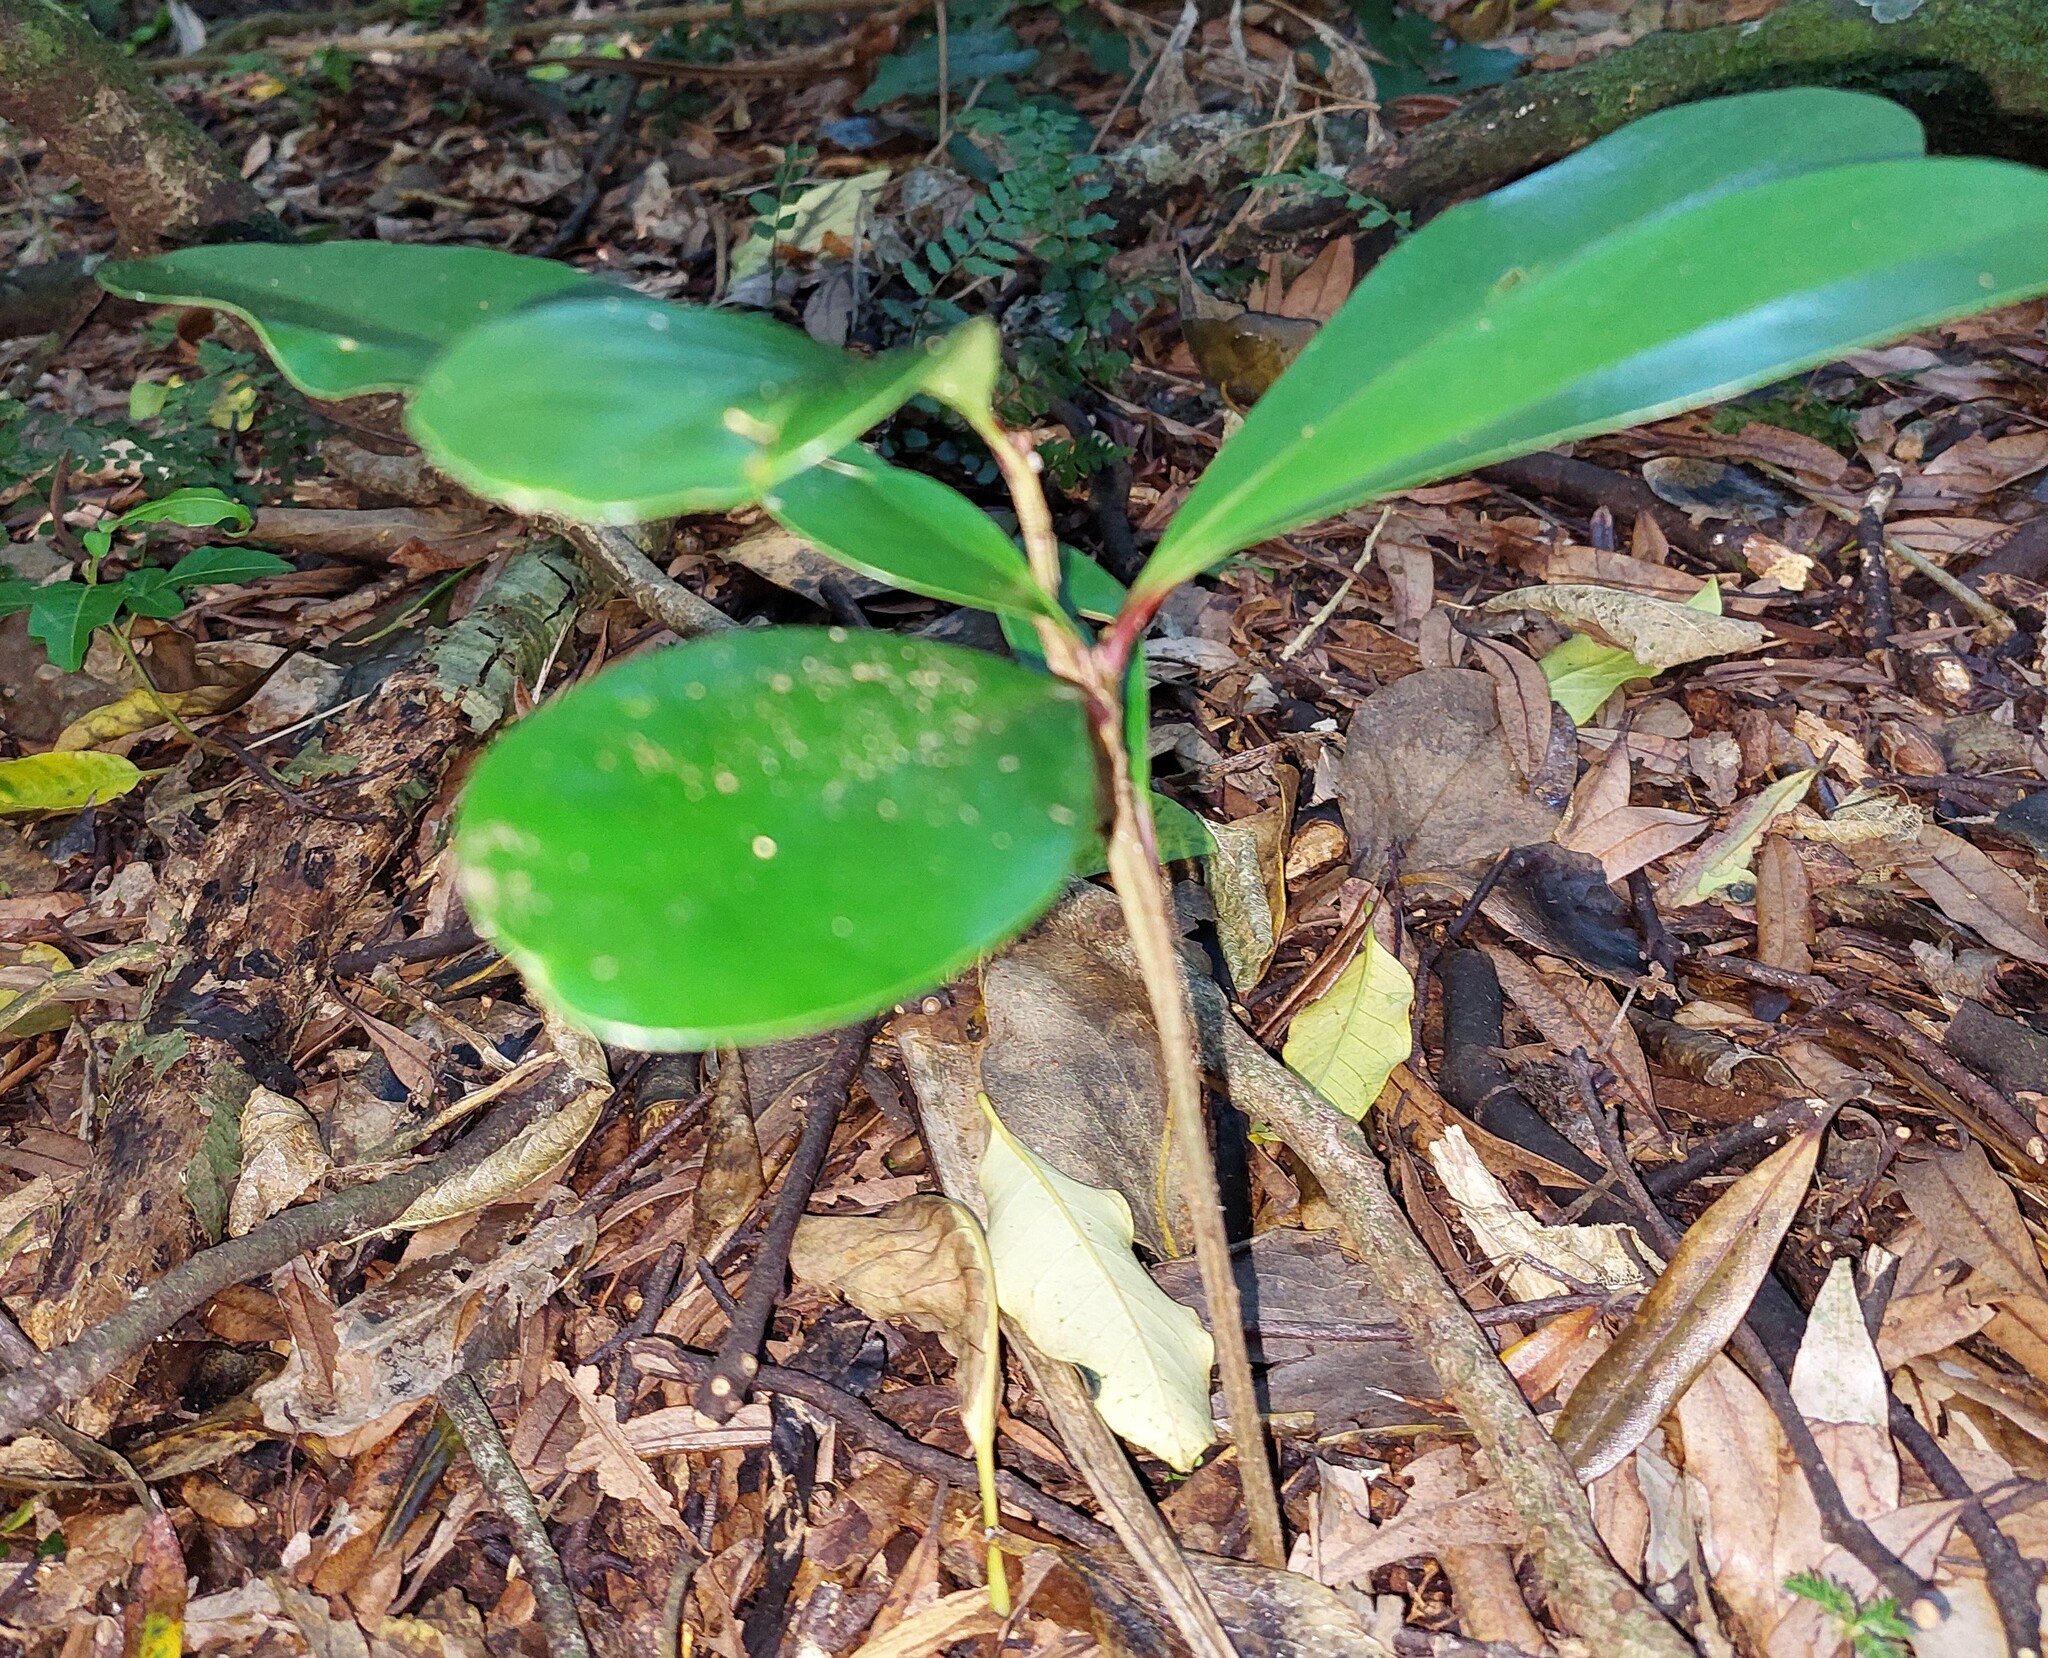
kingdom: Plantae
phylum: Tracheophyta
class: Magnoliopsida
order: Cucurbitales
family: Corynocarpaceae
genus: Corynocarpus
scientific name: Corynocarpus laevigatus
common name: New zealand laurel
